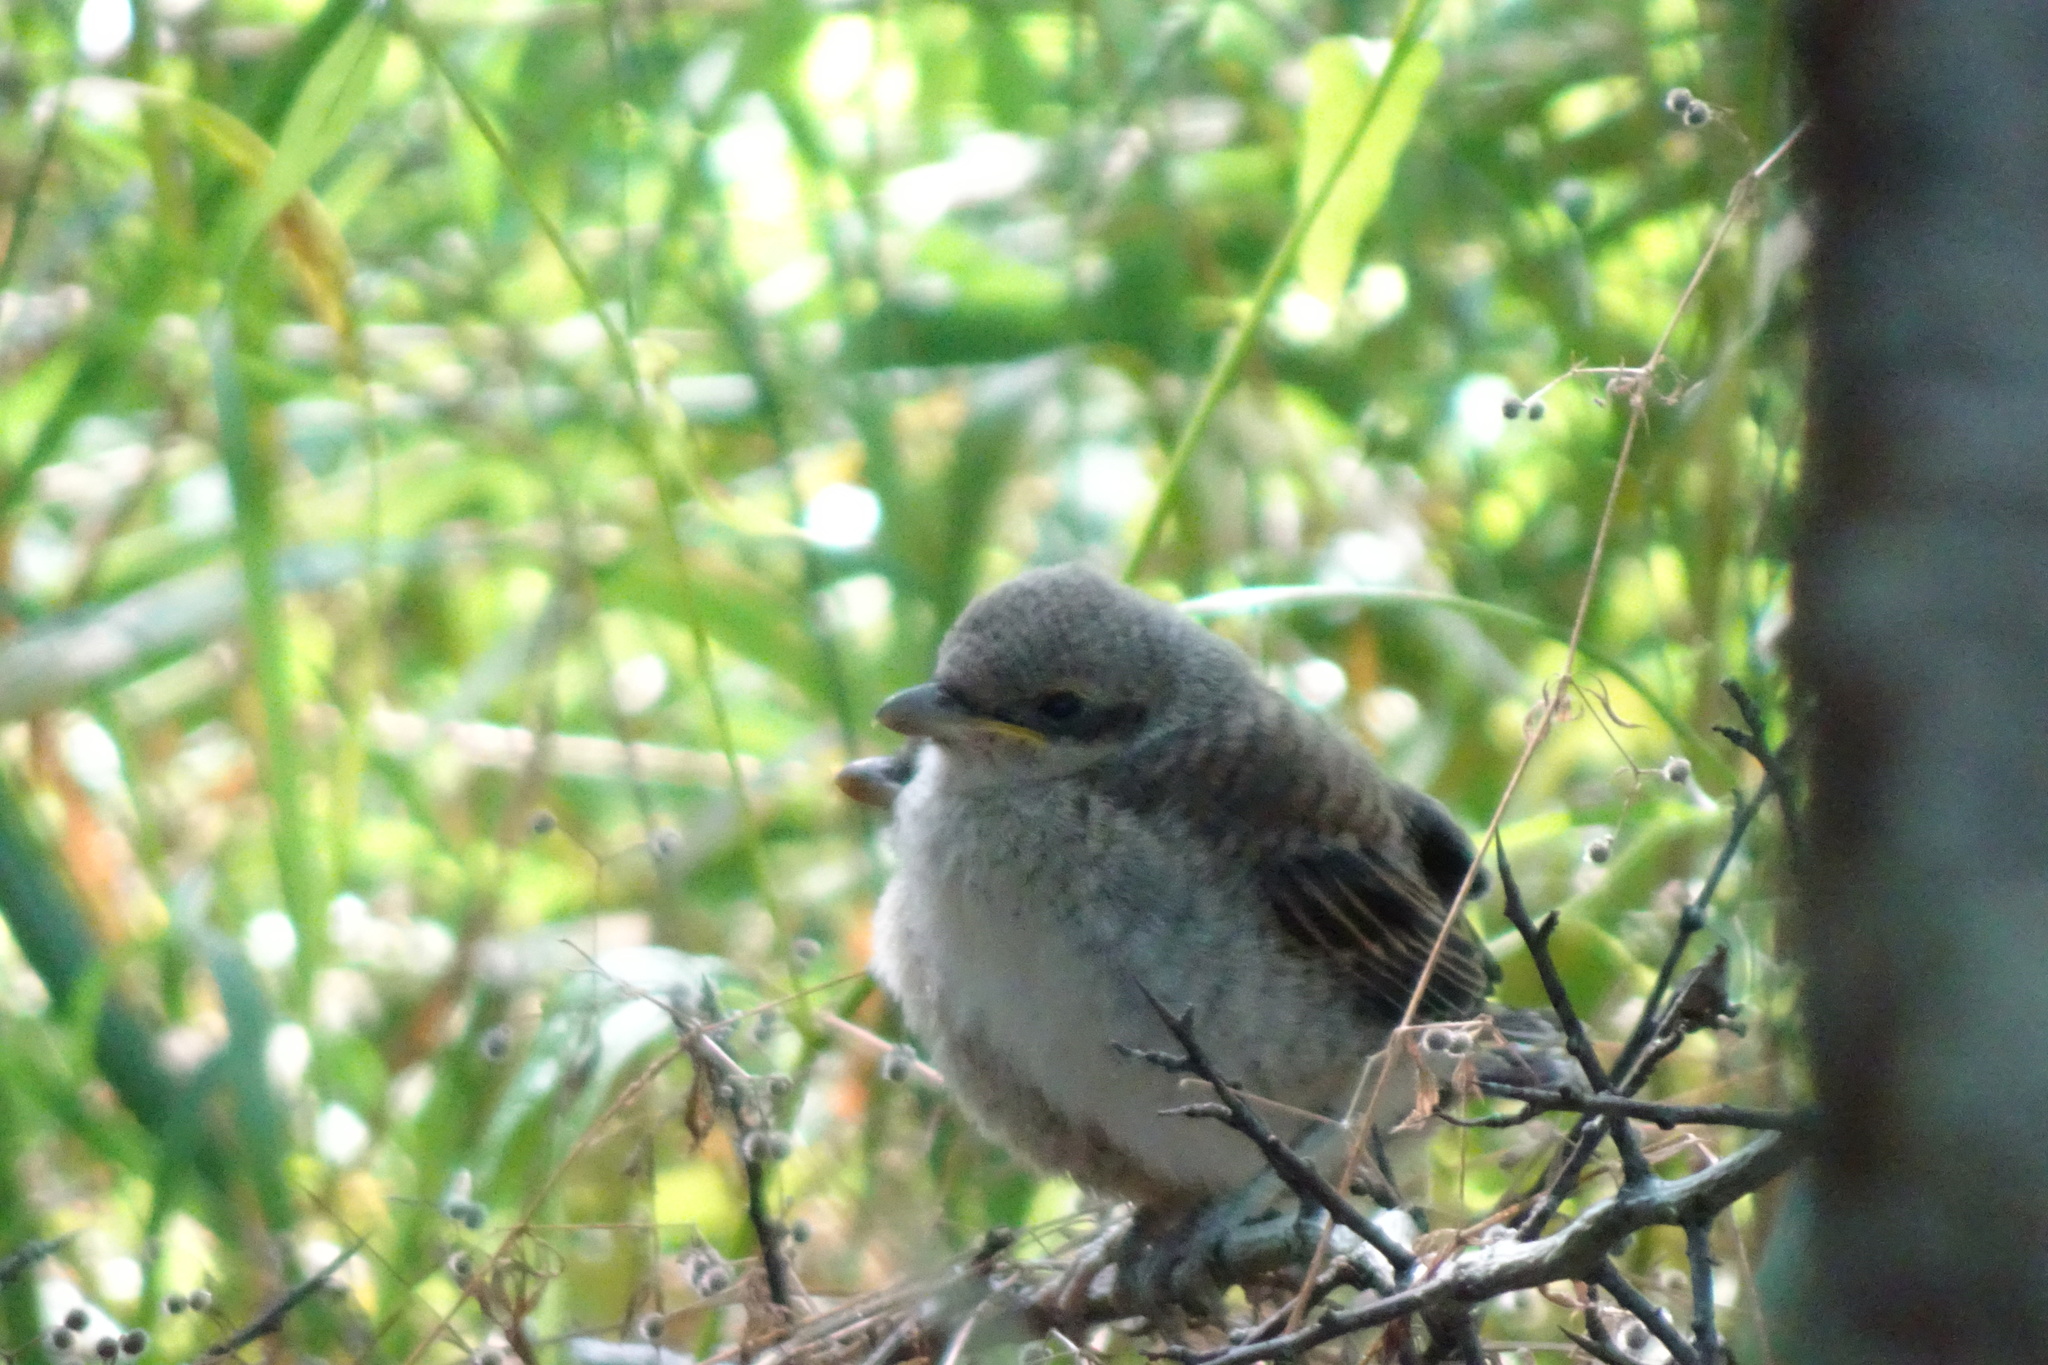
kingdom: Animalia
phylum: Chordata
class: Aves
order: Passeriformes
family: Laniidae
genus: Lanius
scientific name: Lanius collurio
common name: Red-backed shrike
